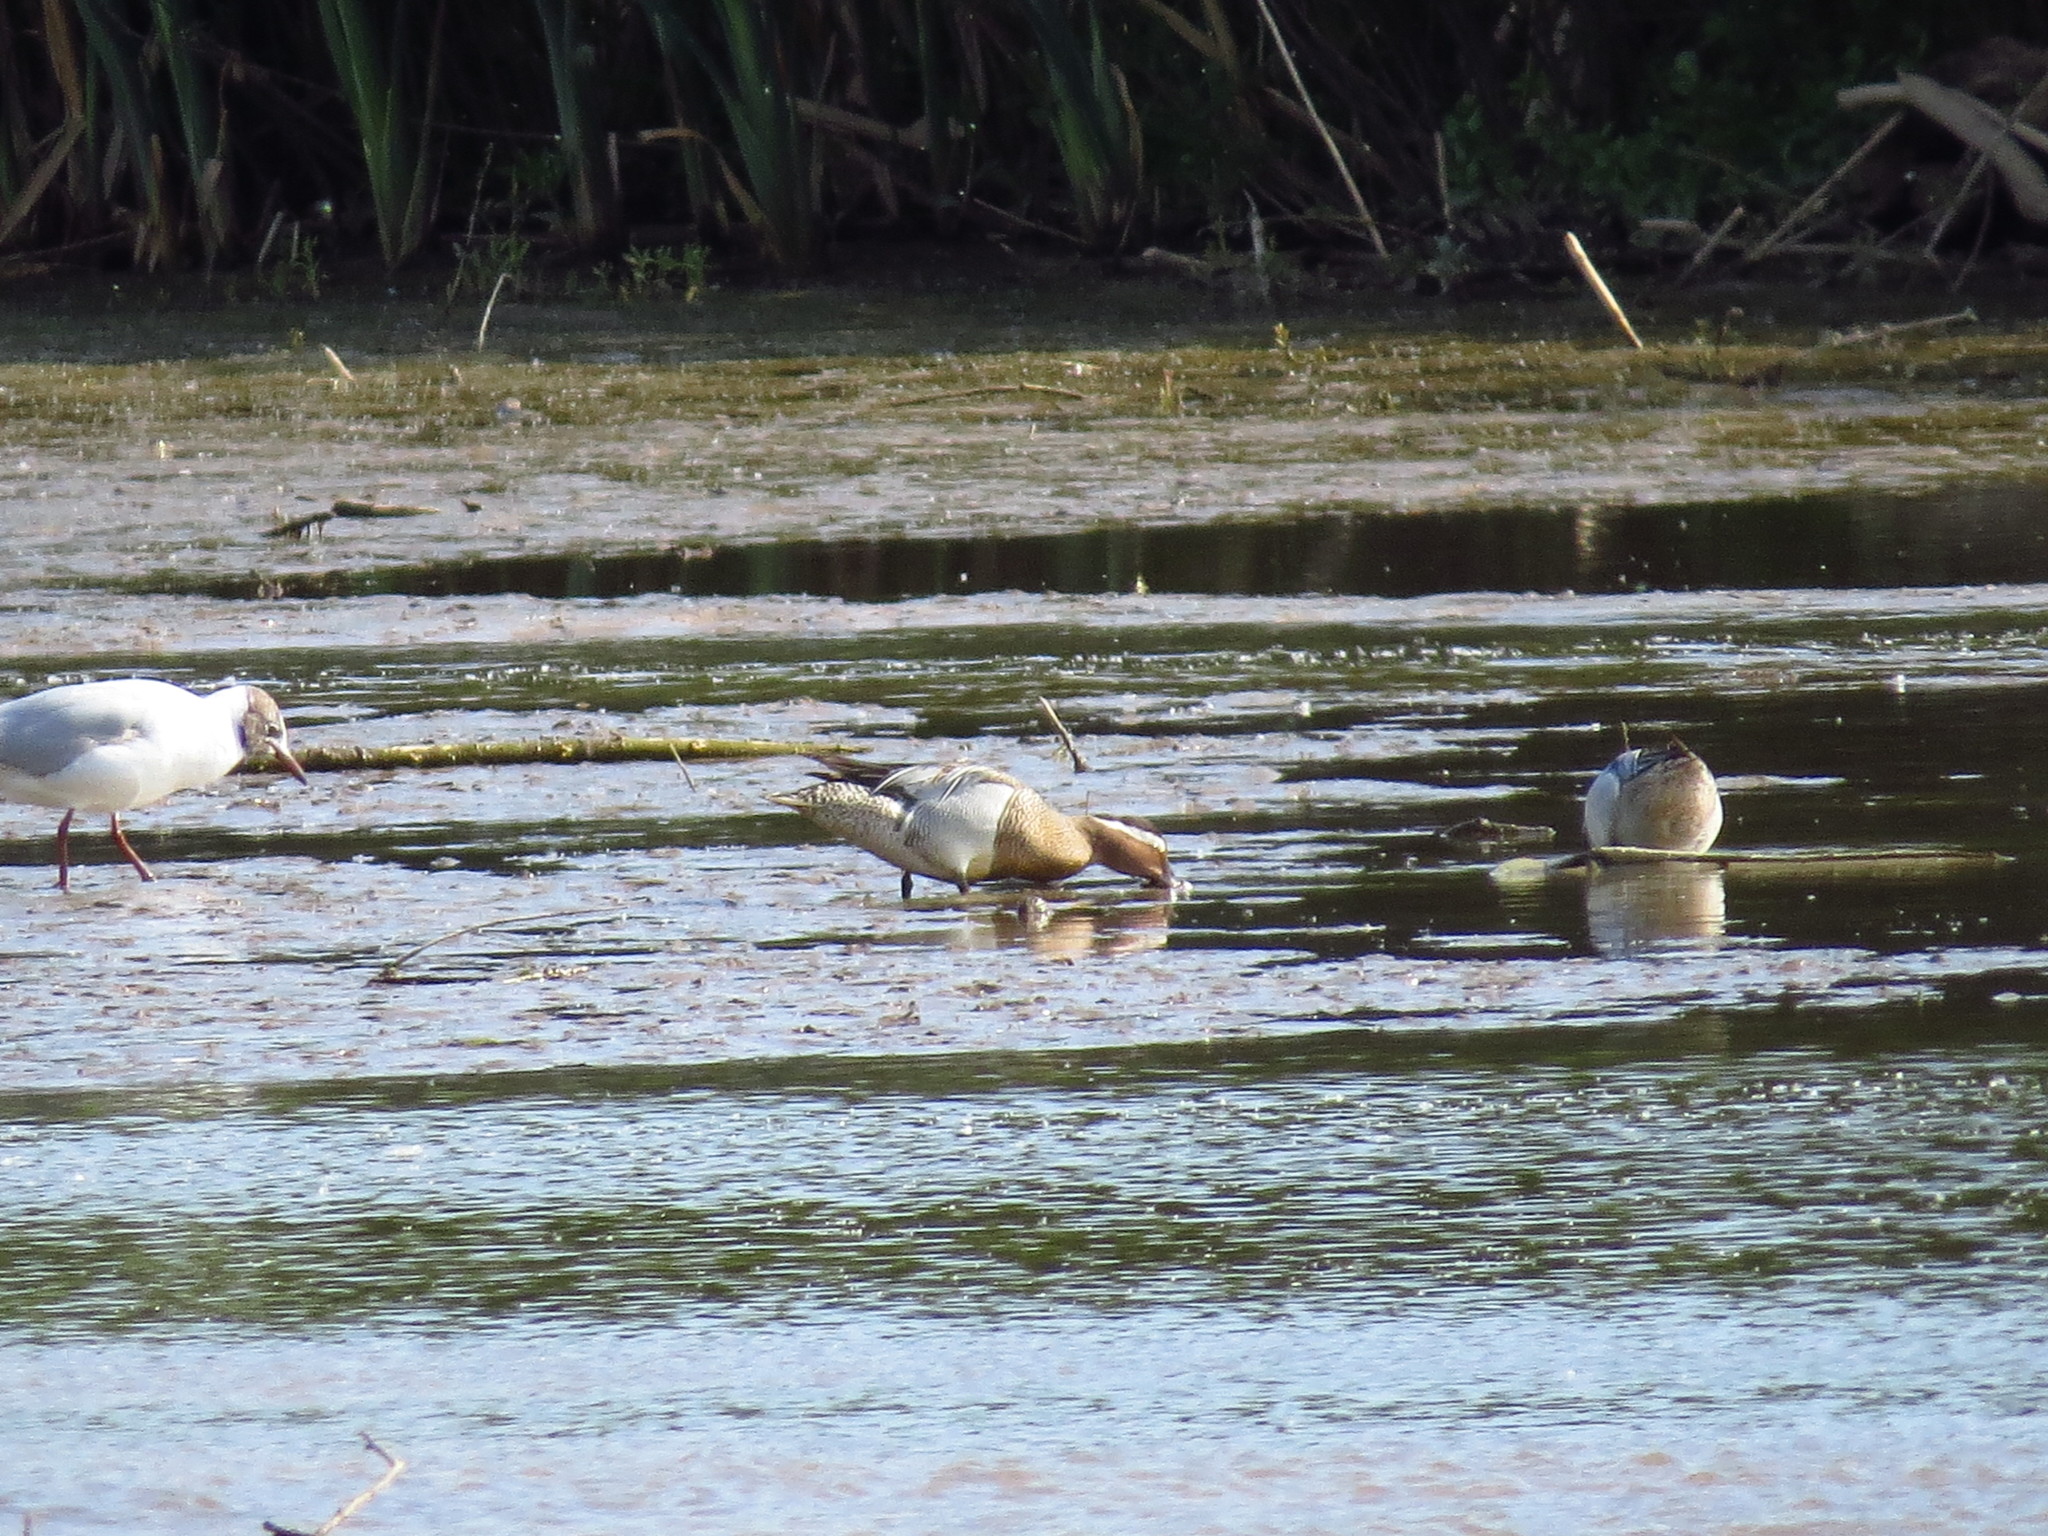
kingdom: Animalia
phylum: Chordata
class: Aves
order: Anseriformes
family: Anatidae
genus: Spatula
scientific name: Spatula querquedula
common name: Garganey
